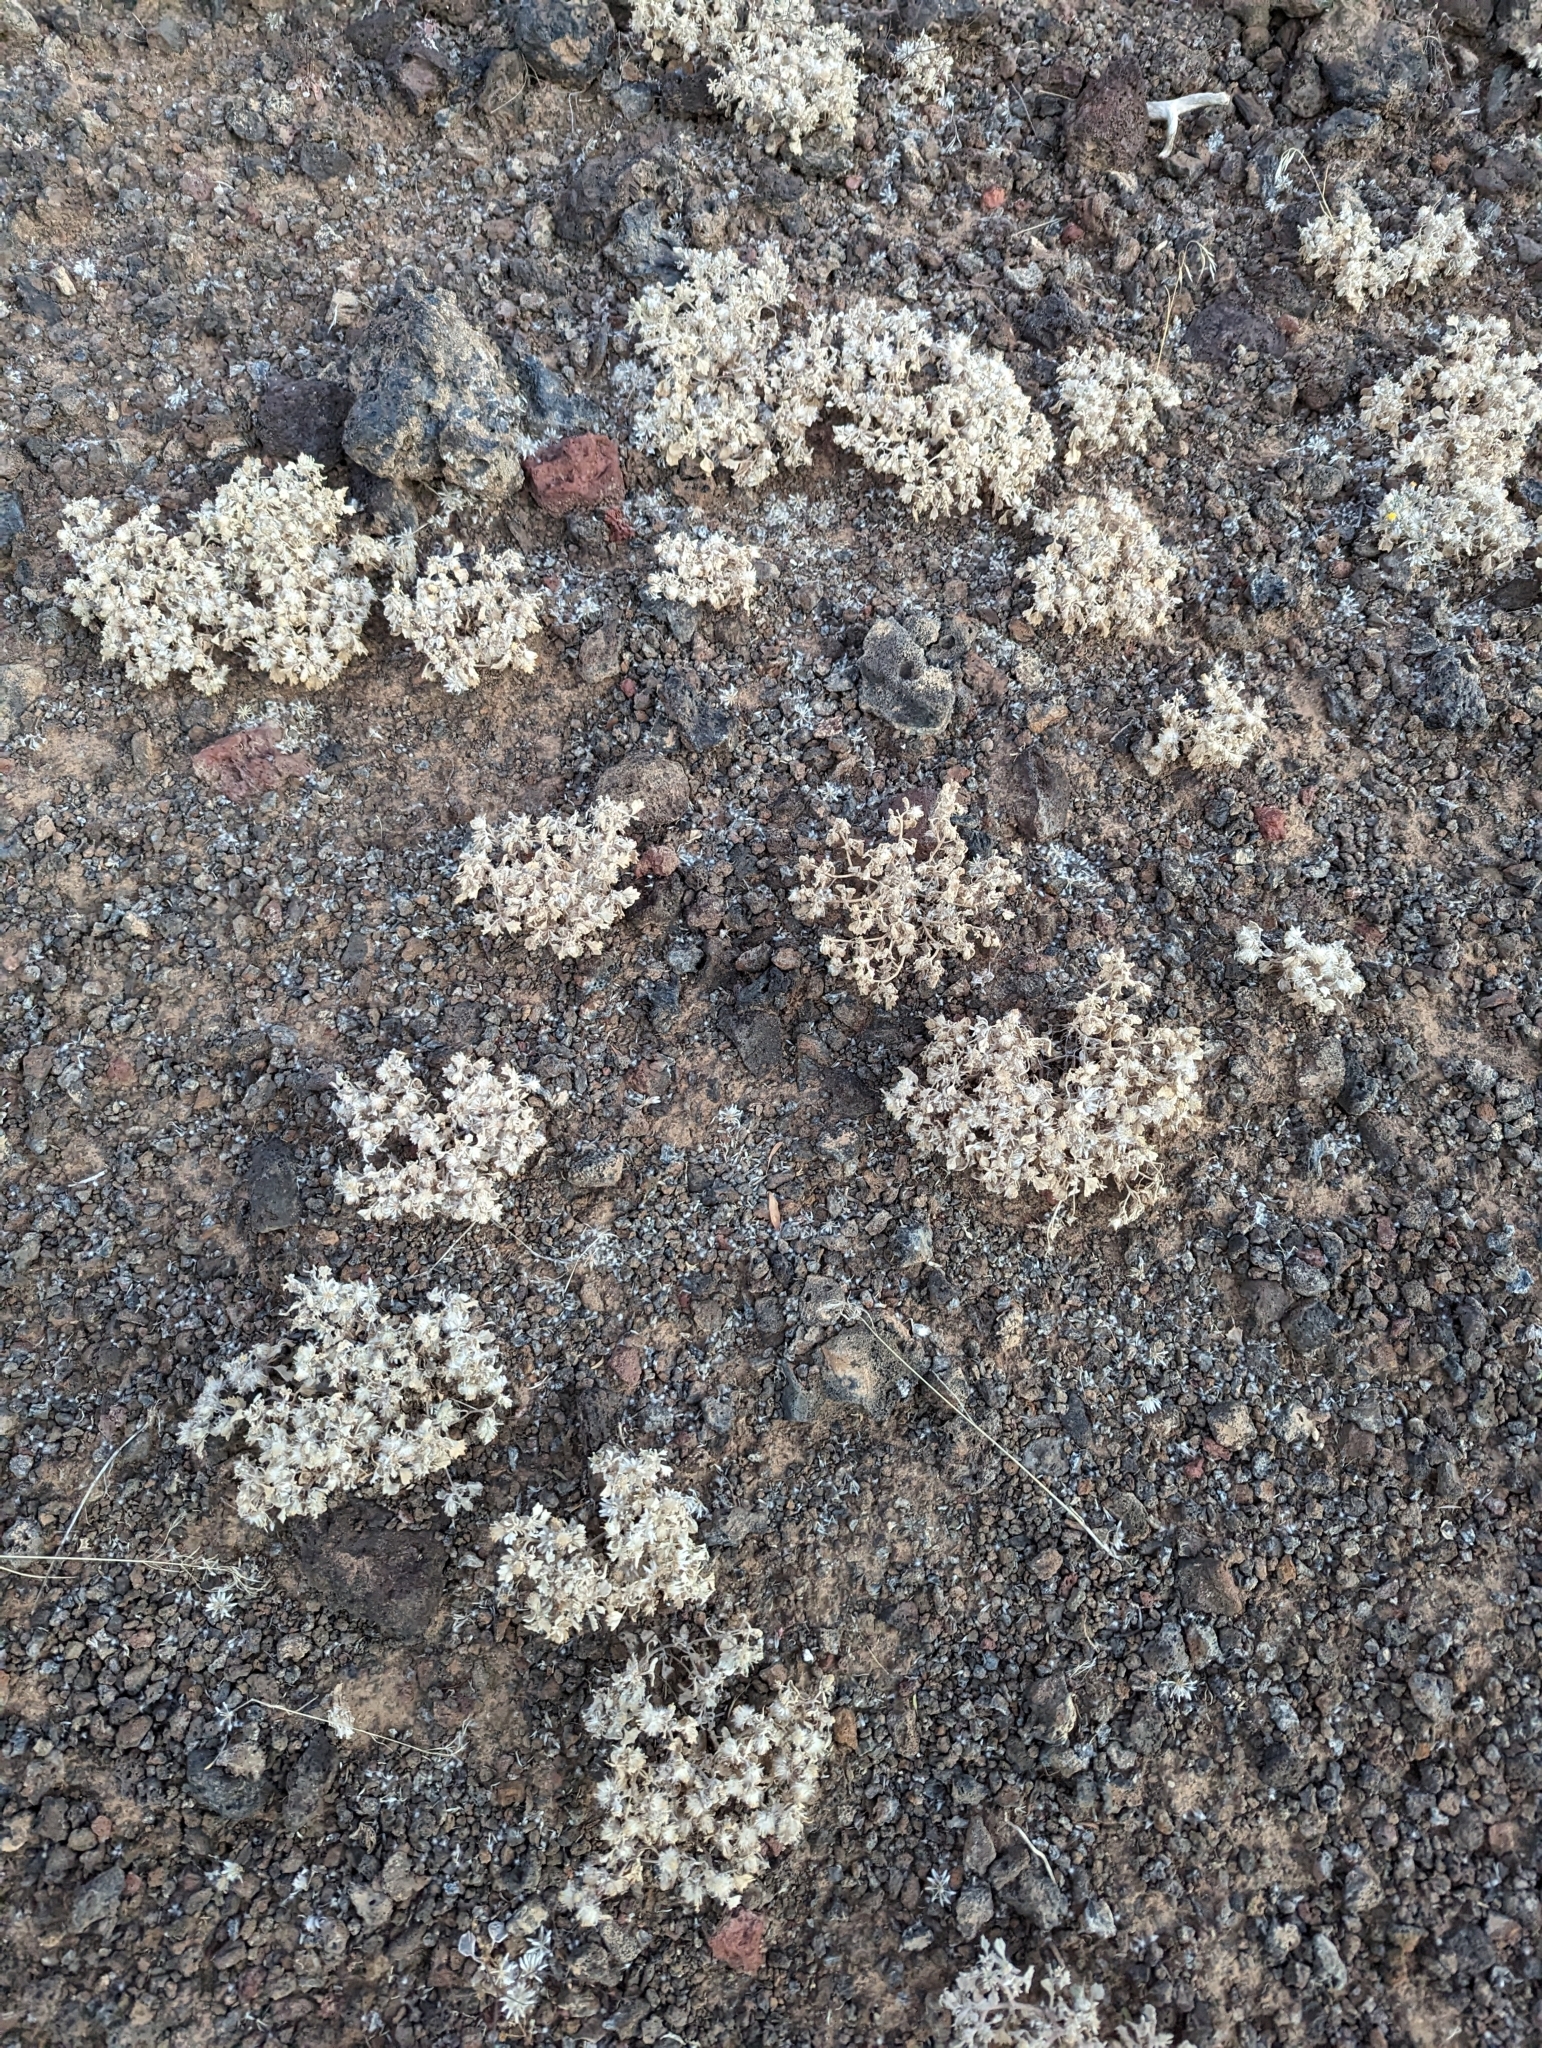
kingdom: Plantae
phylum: Tracheophyta
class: Magnoliopsida
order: Asterales
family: Asteraceae
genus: Psathyrotes
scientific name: Psathyrotes annua
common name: Mealy rosettes
